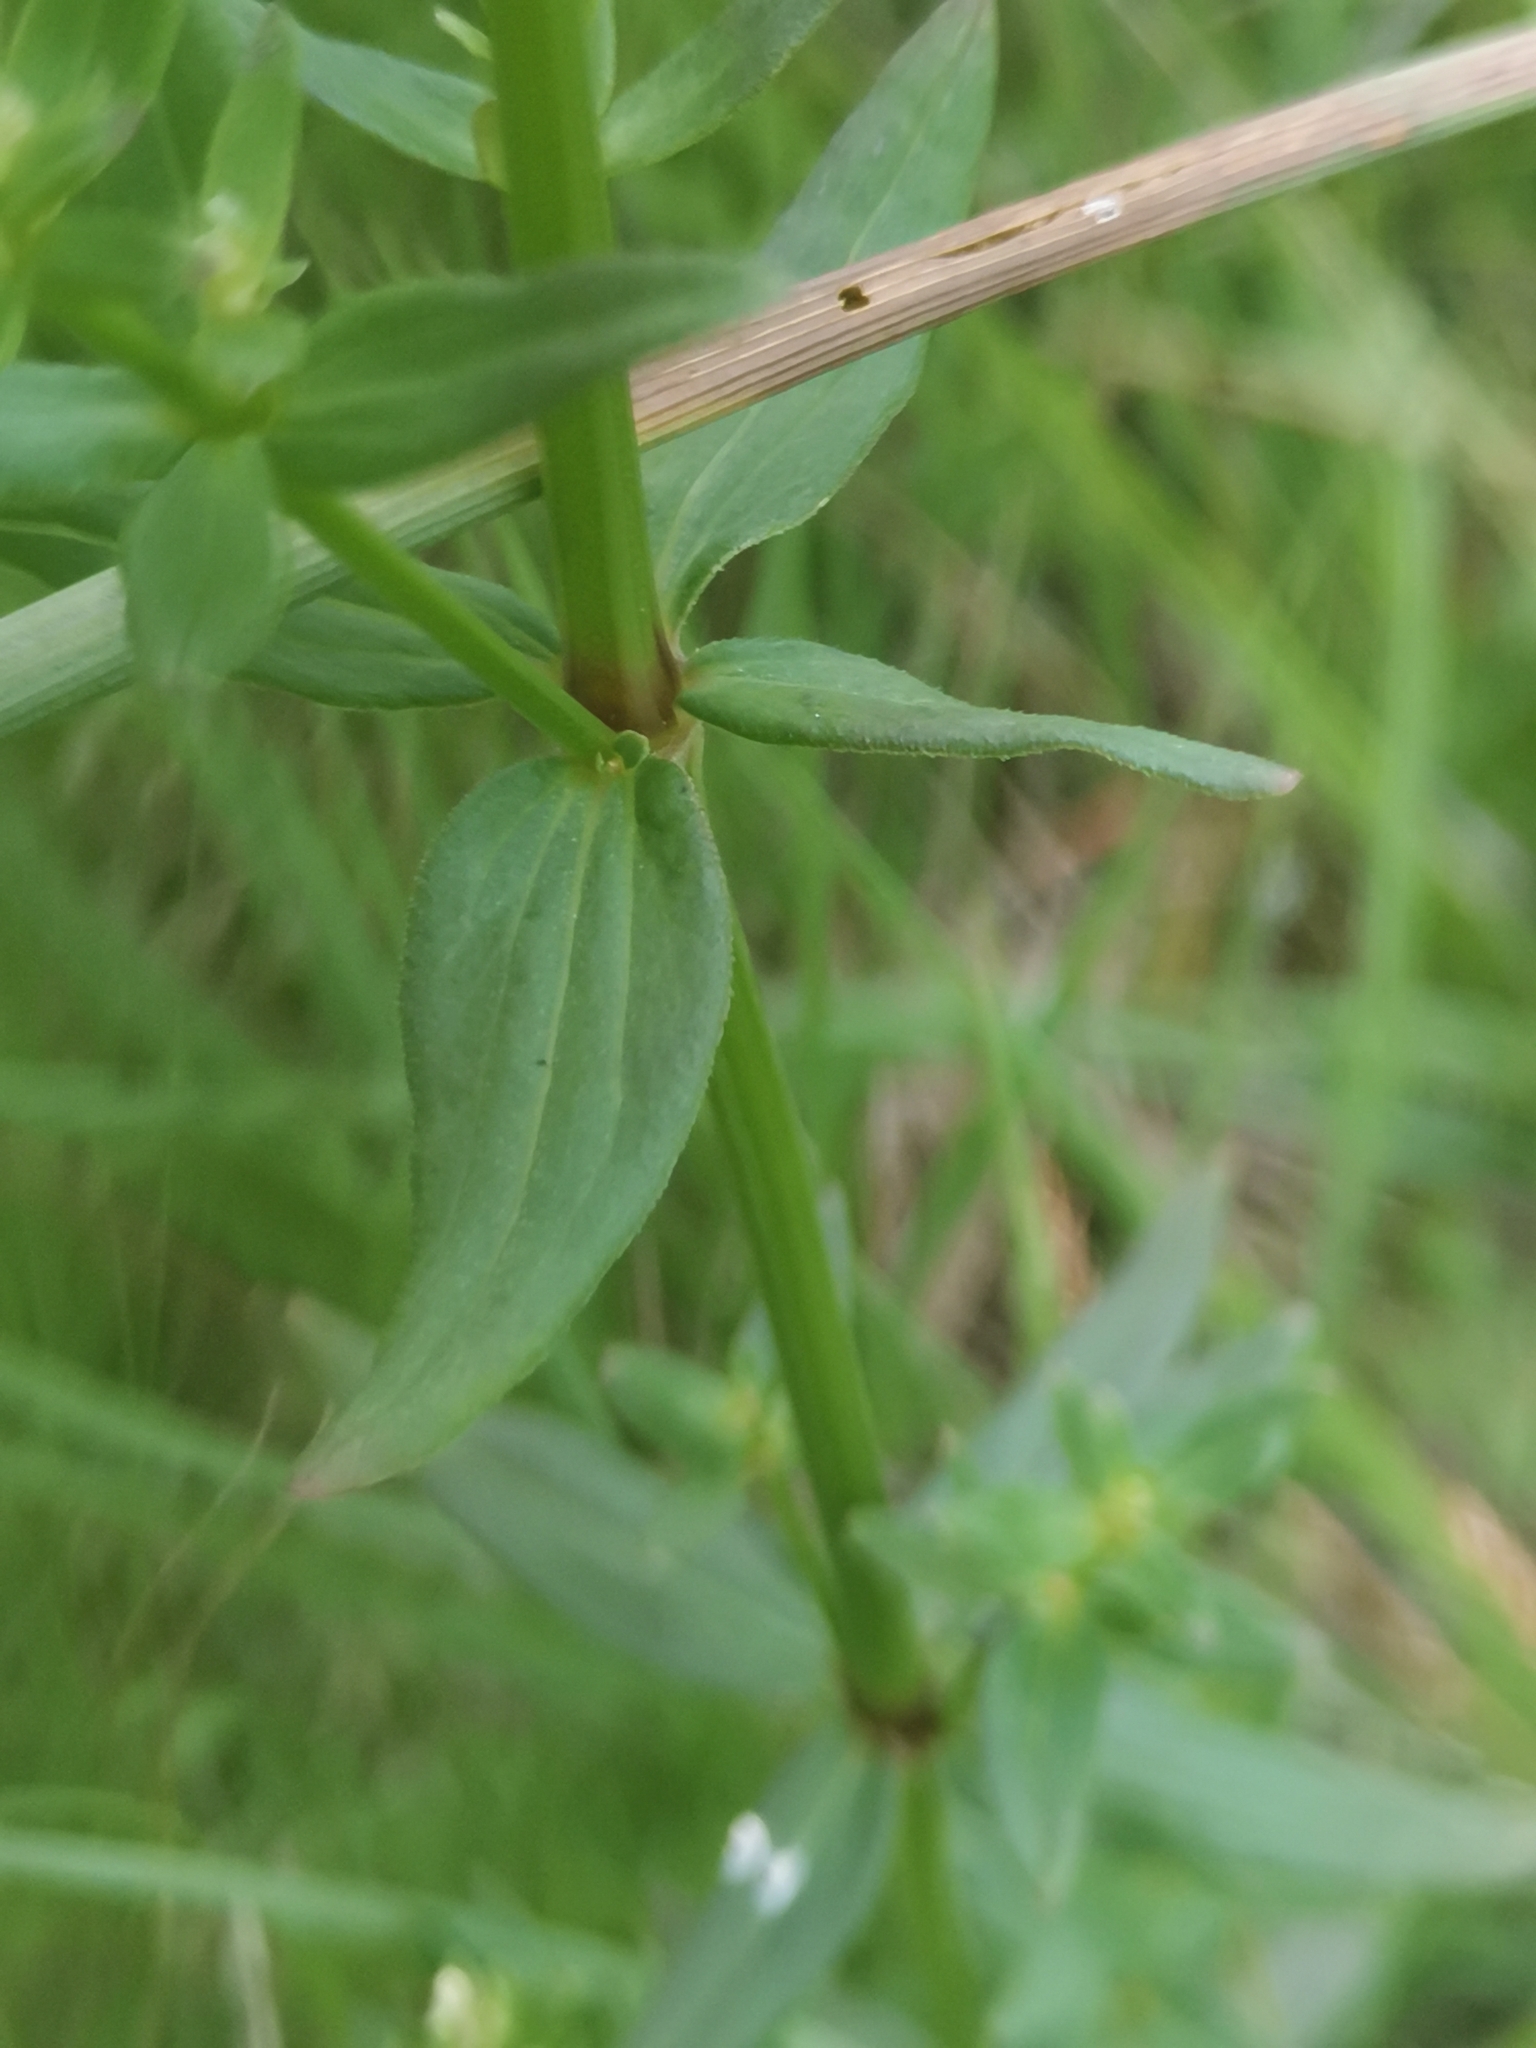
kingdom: Plantae
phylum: Tracheophyta
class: Magnoliopsida
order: Gentianales
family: Rubiaceae
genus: Galium
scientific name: Galium boreale
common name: Northern bedstraw
